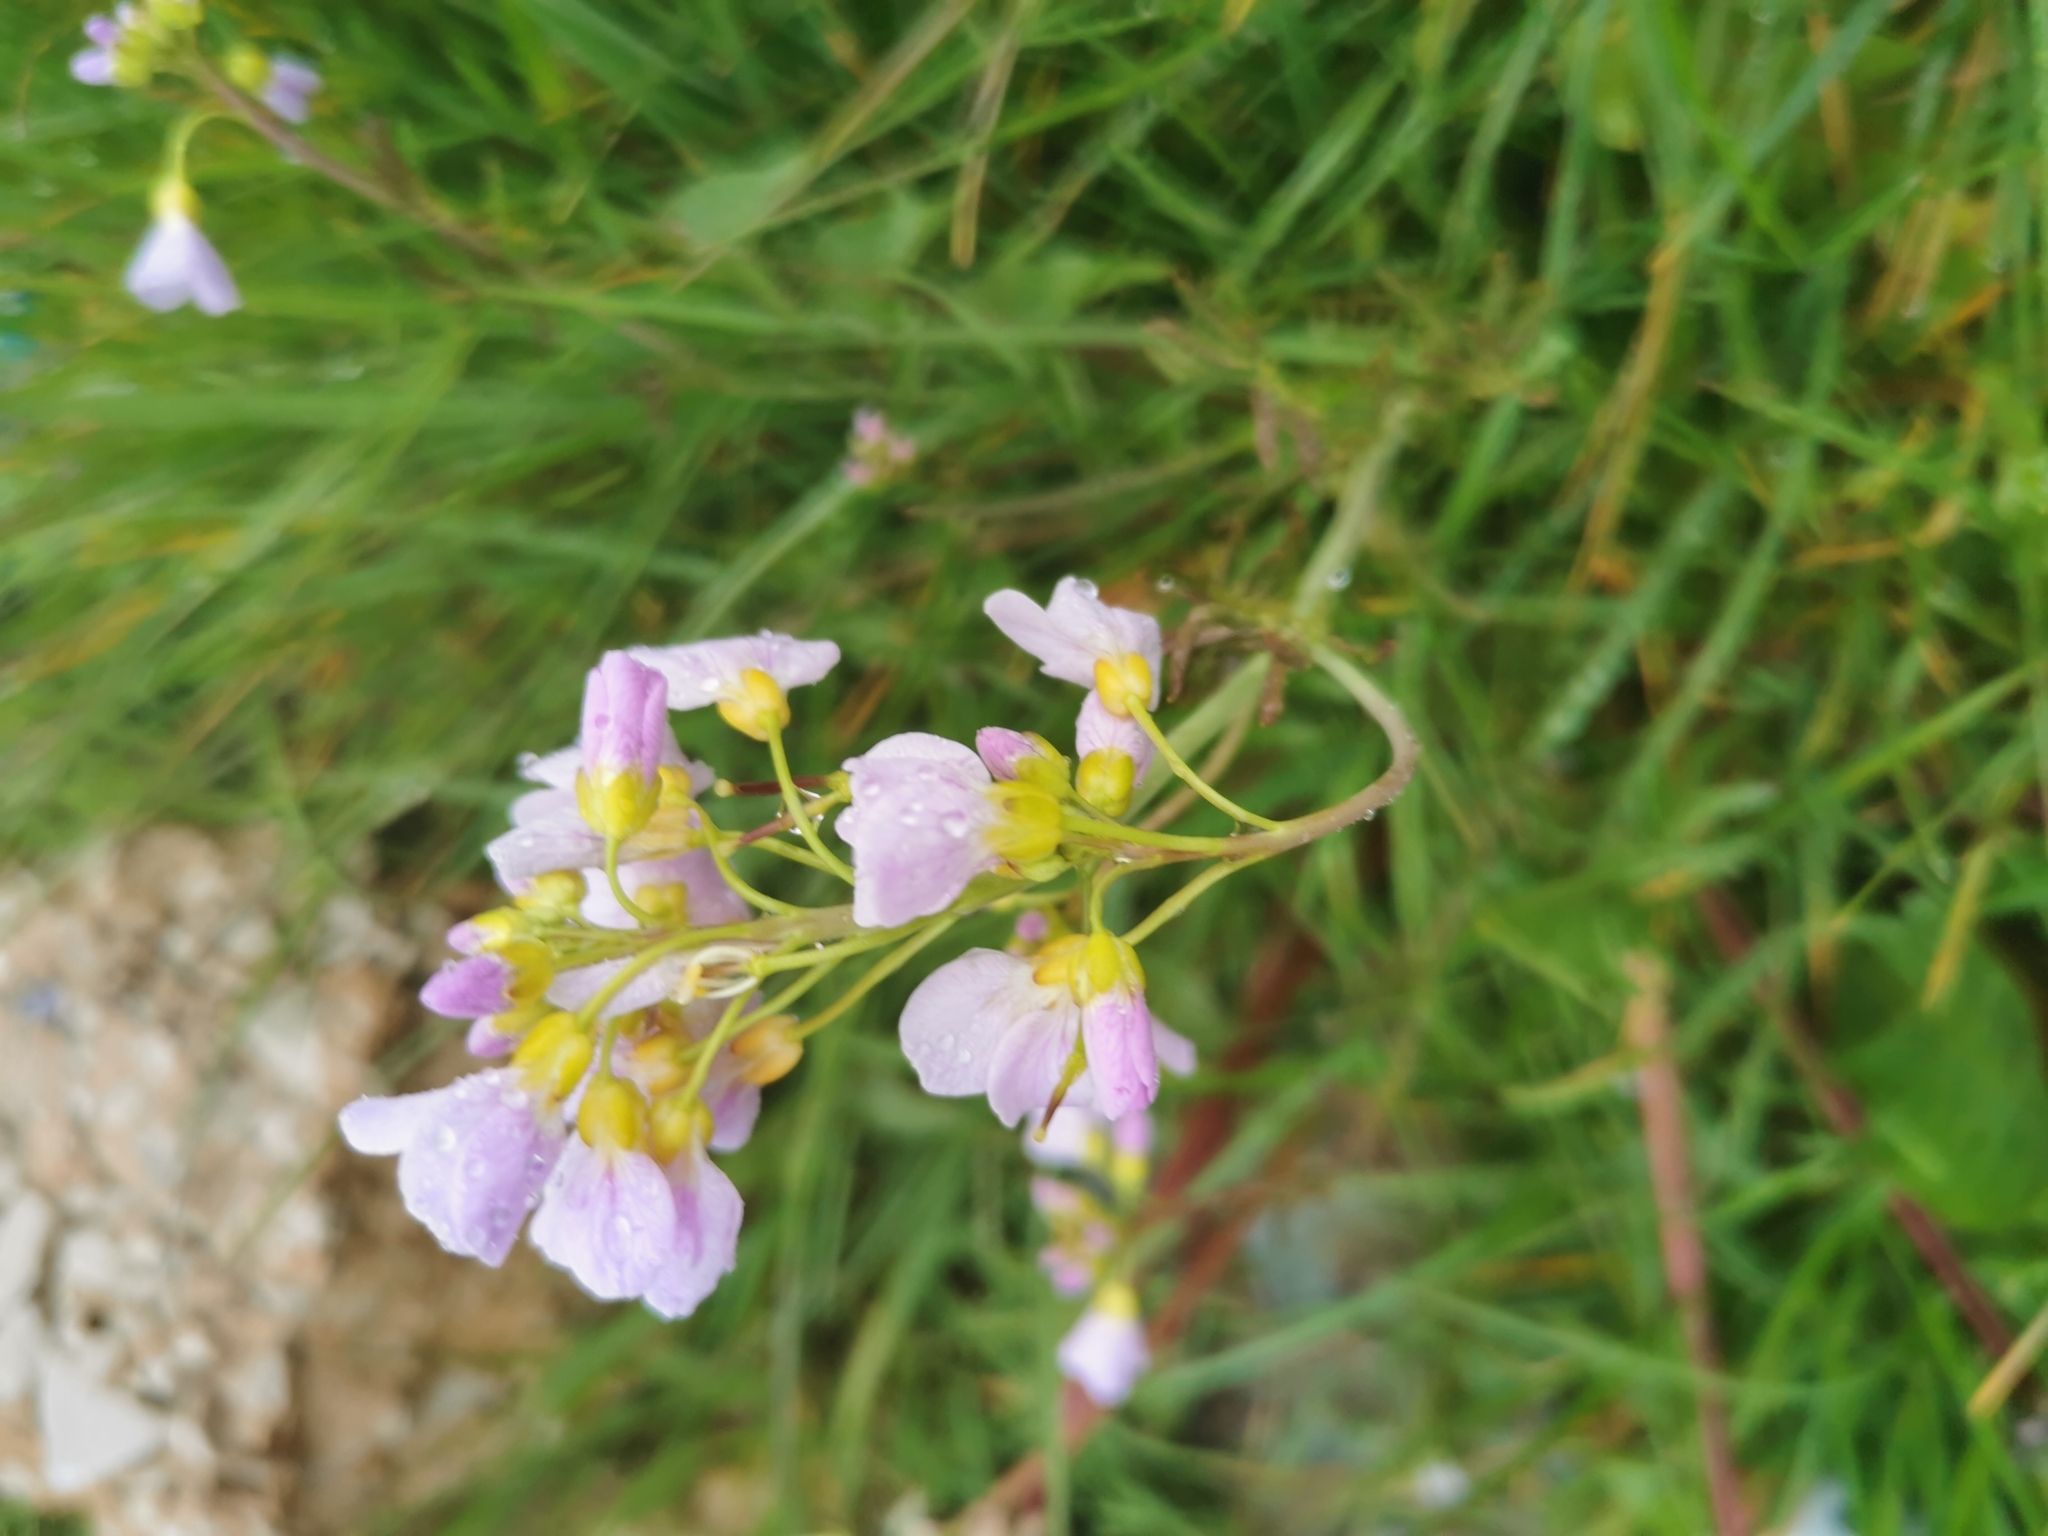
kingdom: Plantae
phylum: Tracheophyta
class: Magnoliopsida
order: Brassicales
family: Brassicaceae
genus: Cardamine
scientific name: Cardamine pratensis
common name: Cuckoo flower
